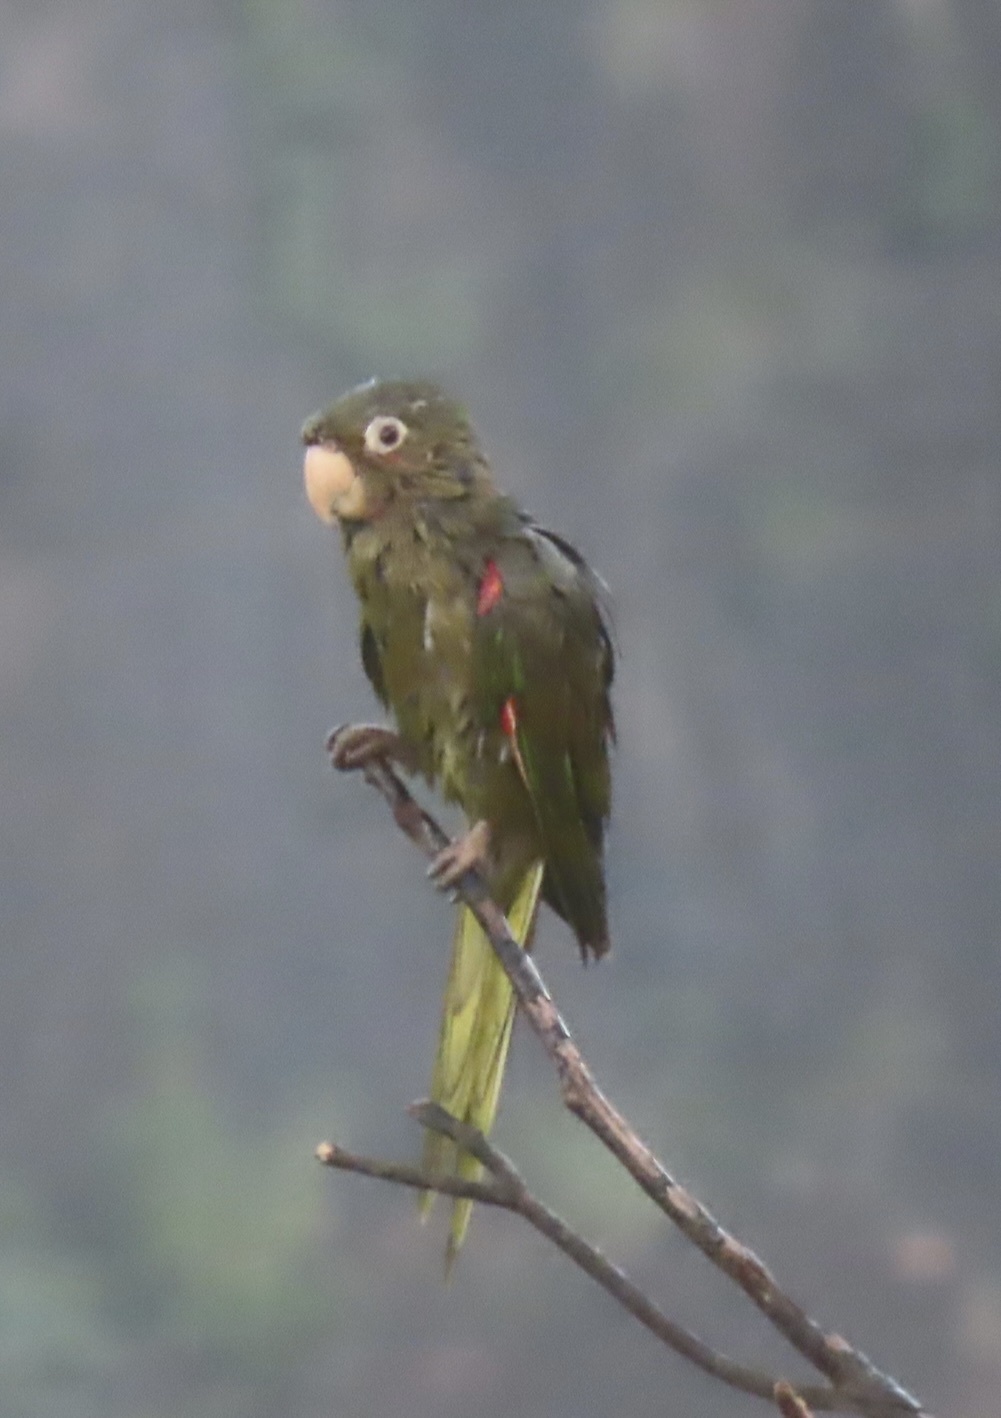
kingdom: Animalia
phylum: Chordata
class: Aves
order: Psittaciformes
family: Psittacidae
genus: Aratinga
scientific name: Aratinga leucophthalma
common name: White-eyed parakeet
